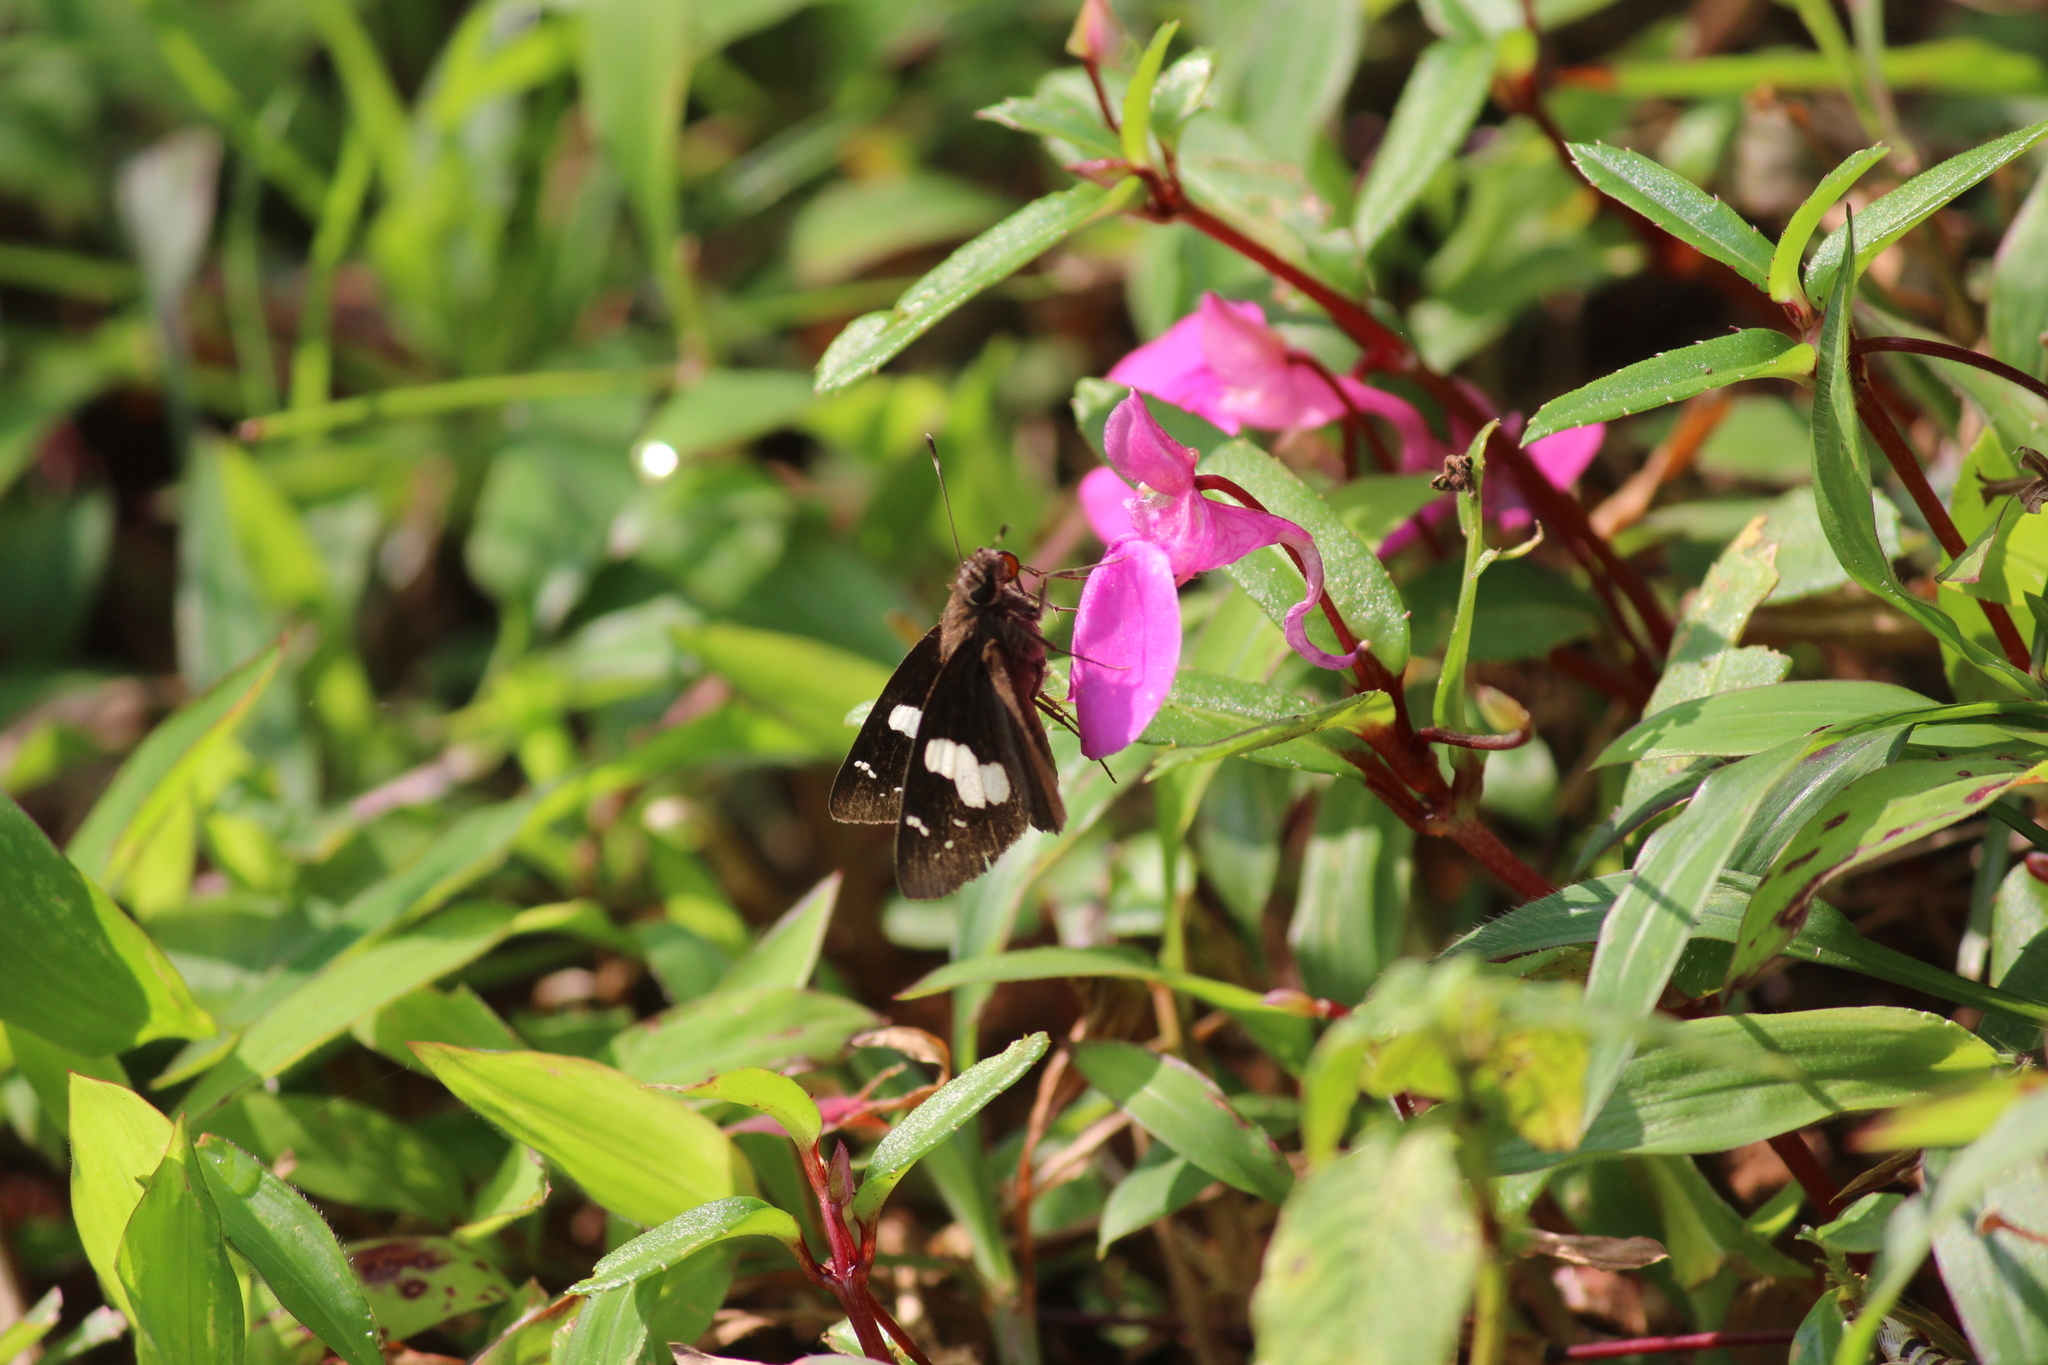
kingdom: Animalia
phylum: Arthropoda
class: Insecta
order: Lepidoptera
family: Hesperiidae
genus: Notocrypta
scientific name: Notocrypta curvifascia
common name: Restricted demon
